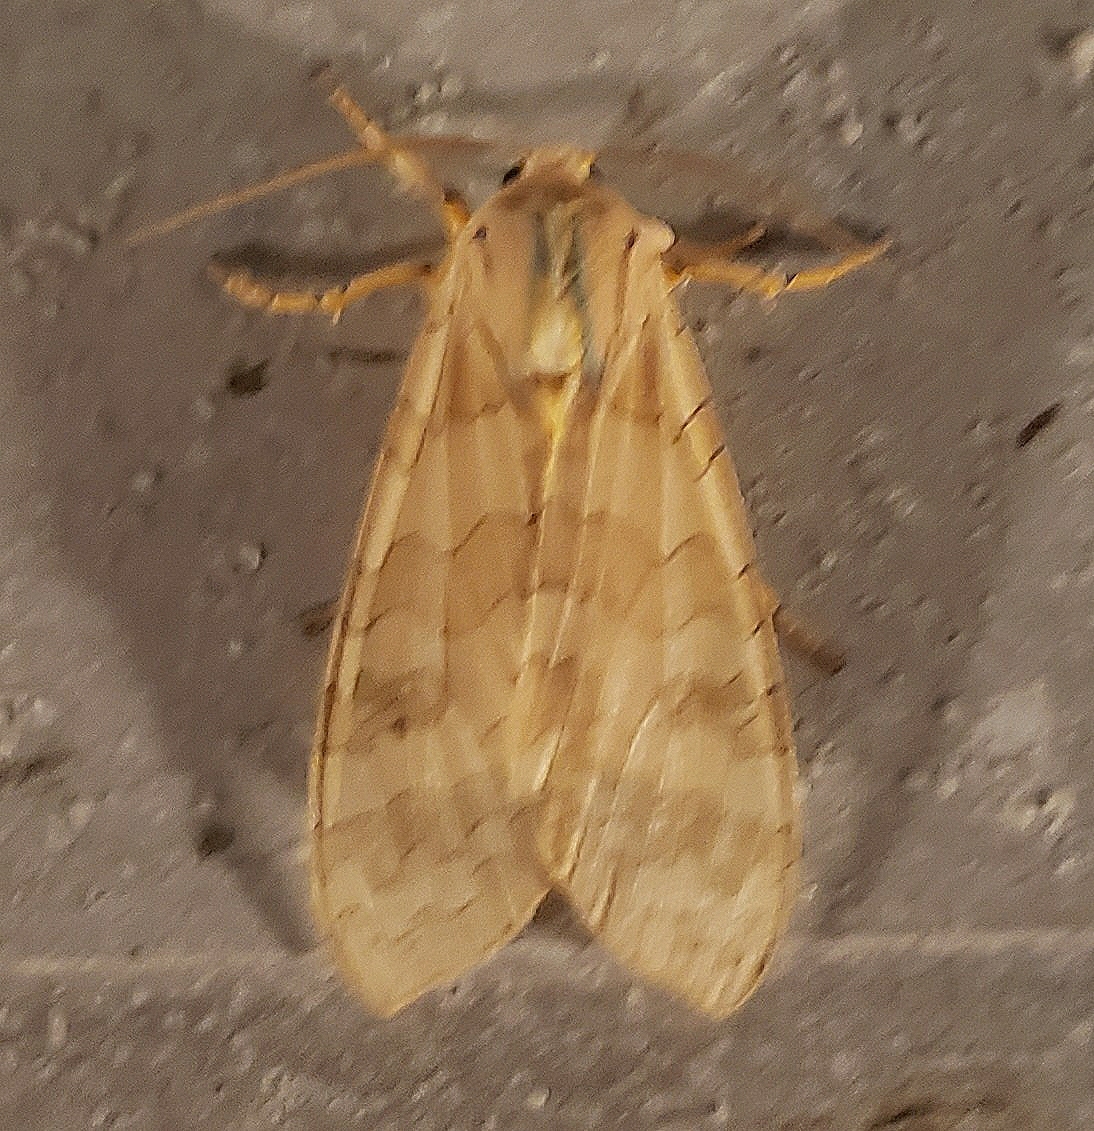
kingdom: Animalia
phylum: Arthropoda
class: Insecta
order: Lepidoptera
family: Erebidae
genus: Halysidota
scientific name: Halysidota
